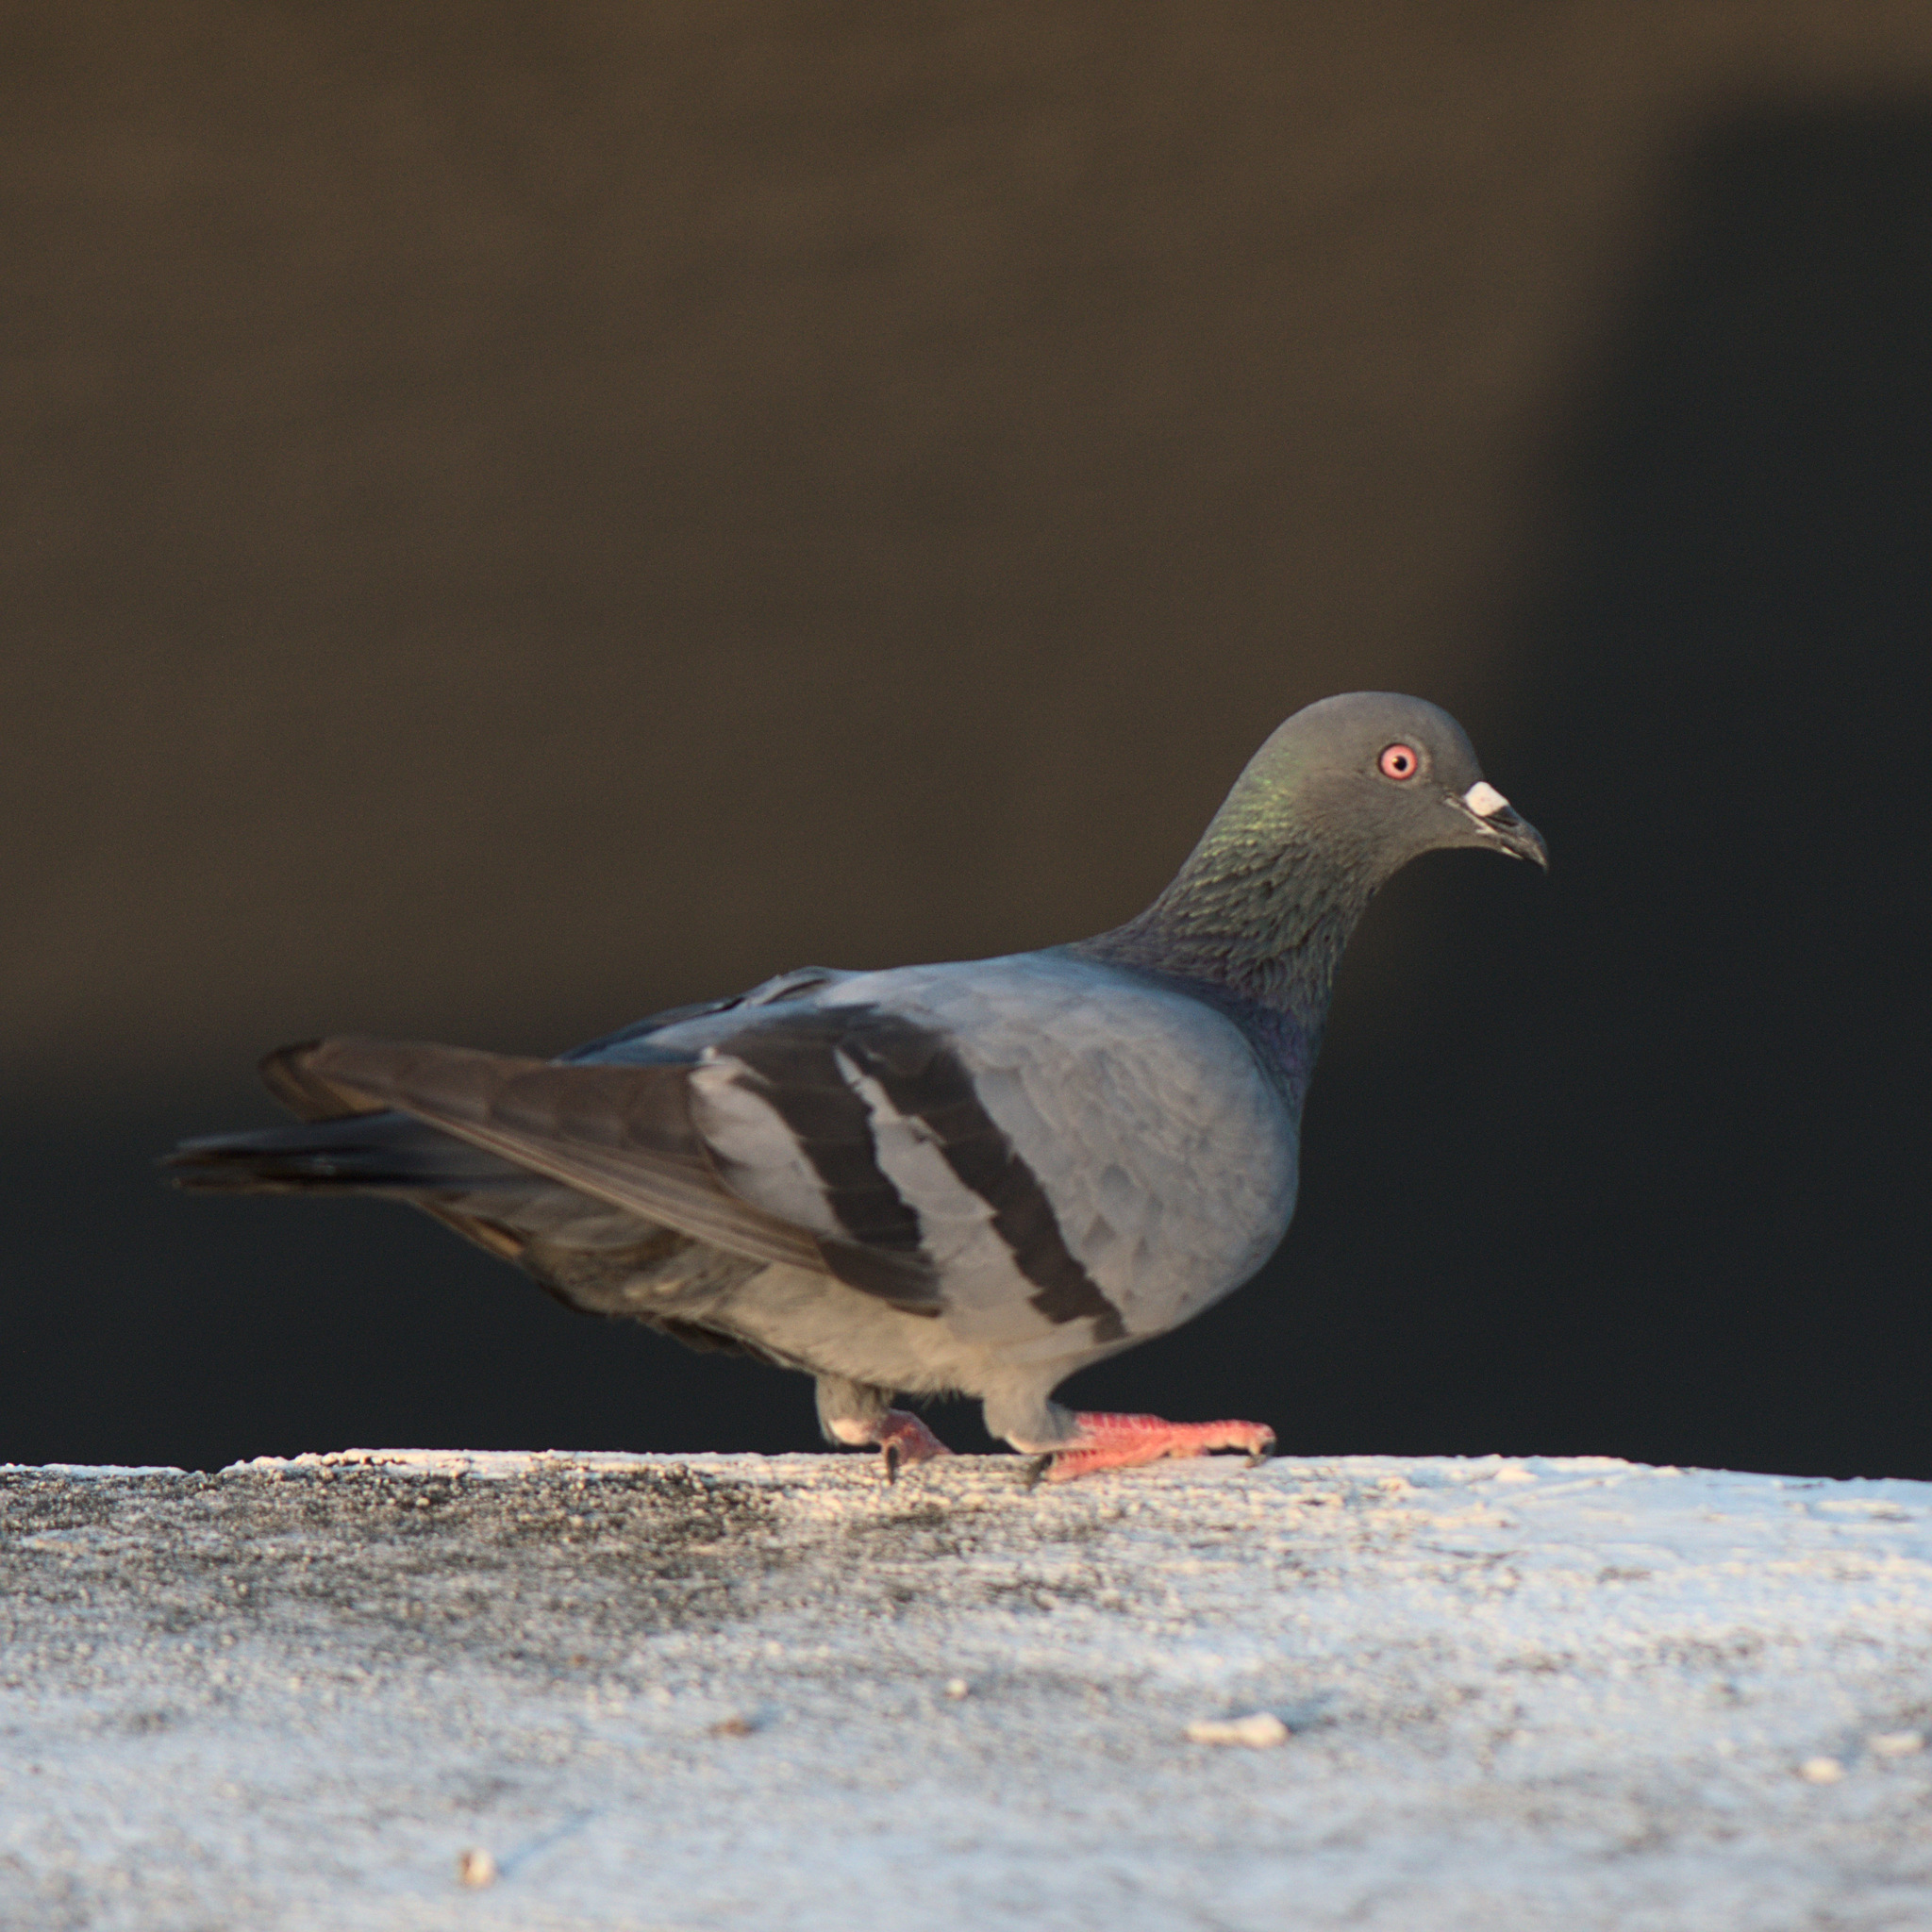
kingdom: Animalia
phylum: Chordata
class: Aves
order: Columbiformes
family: Columbidae
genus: Columba
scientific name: Columba livia
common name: Rock pigeon
